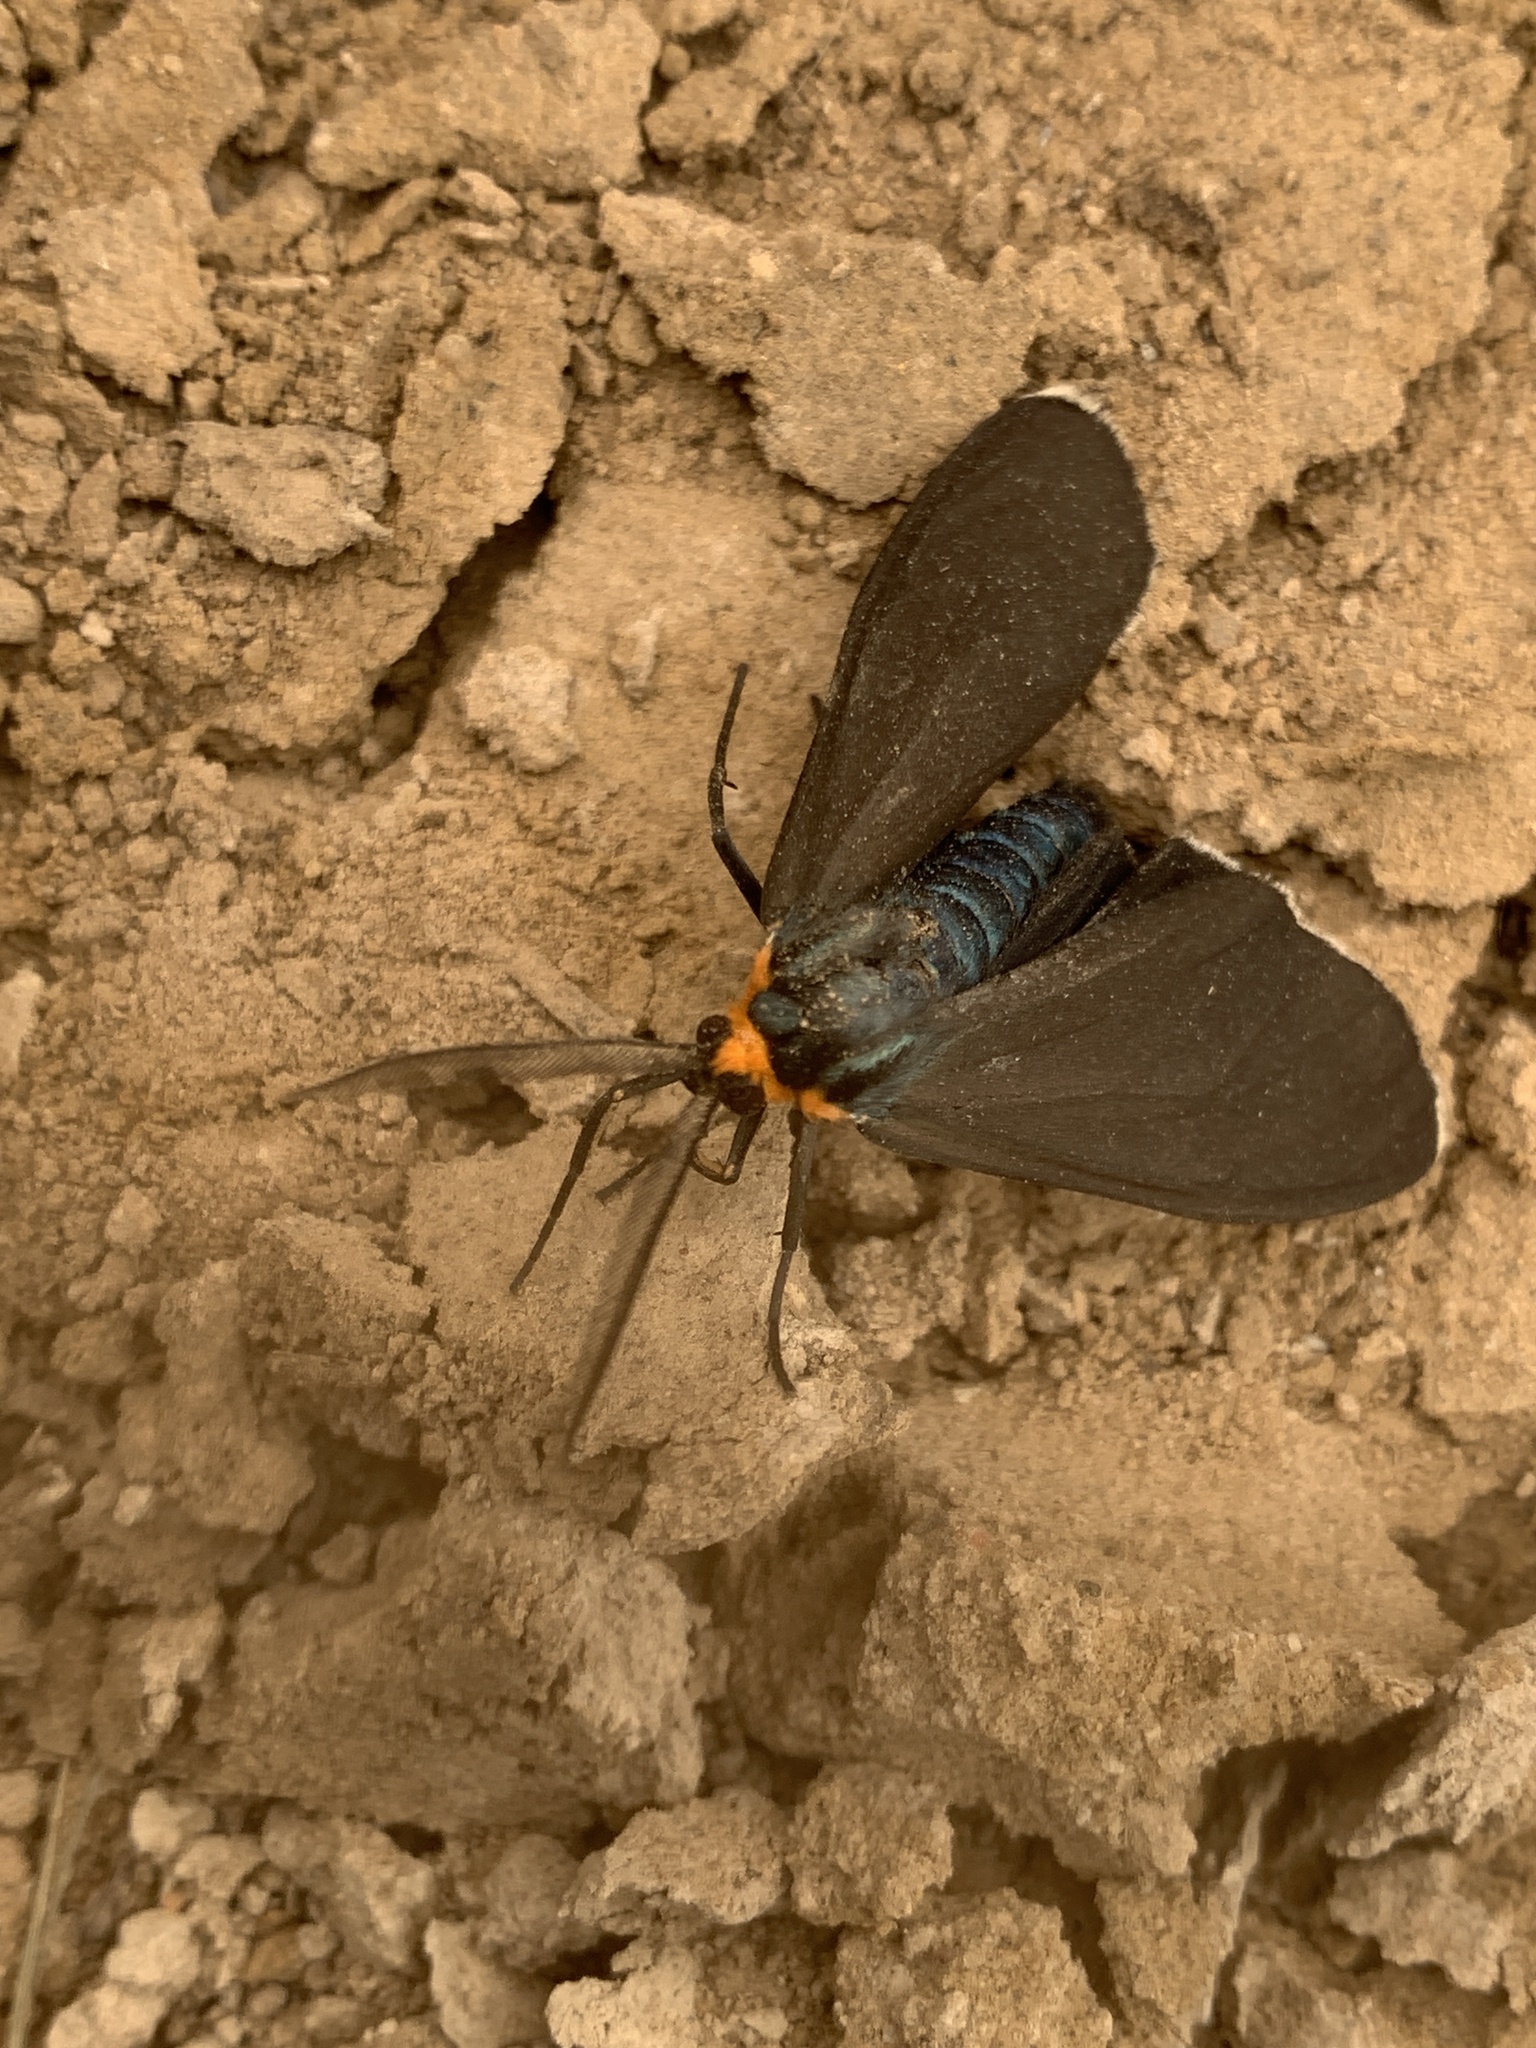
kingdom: Animalia
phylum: Arthropoda
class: Insecta
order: Lepidoptera
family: Erebidae
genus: Ctenucha
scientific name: Ctenucha virginica
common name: Virginia ctenucha moth
